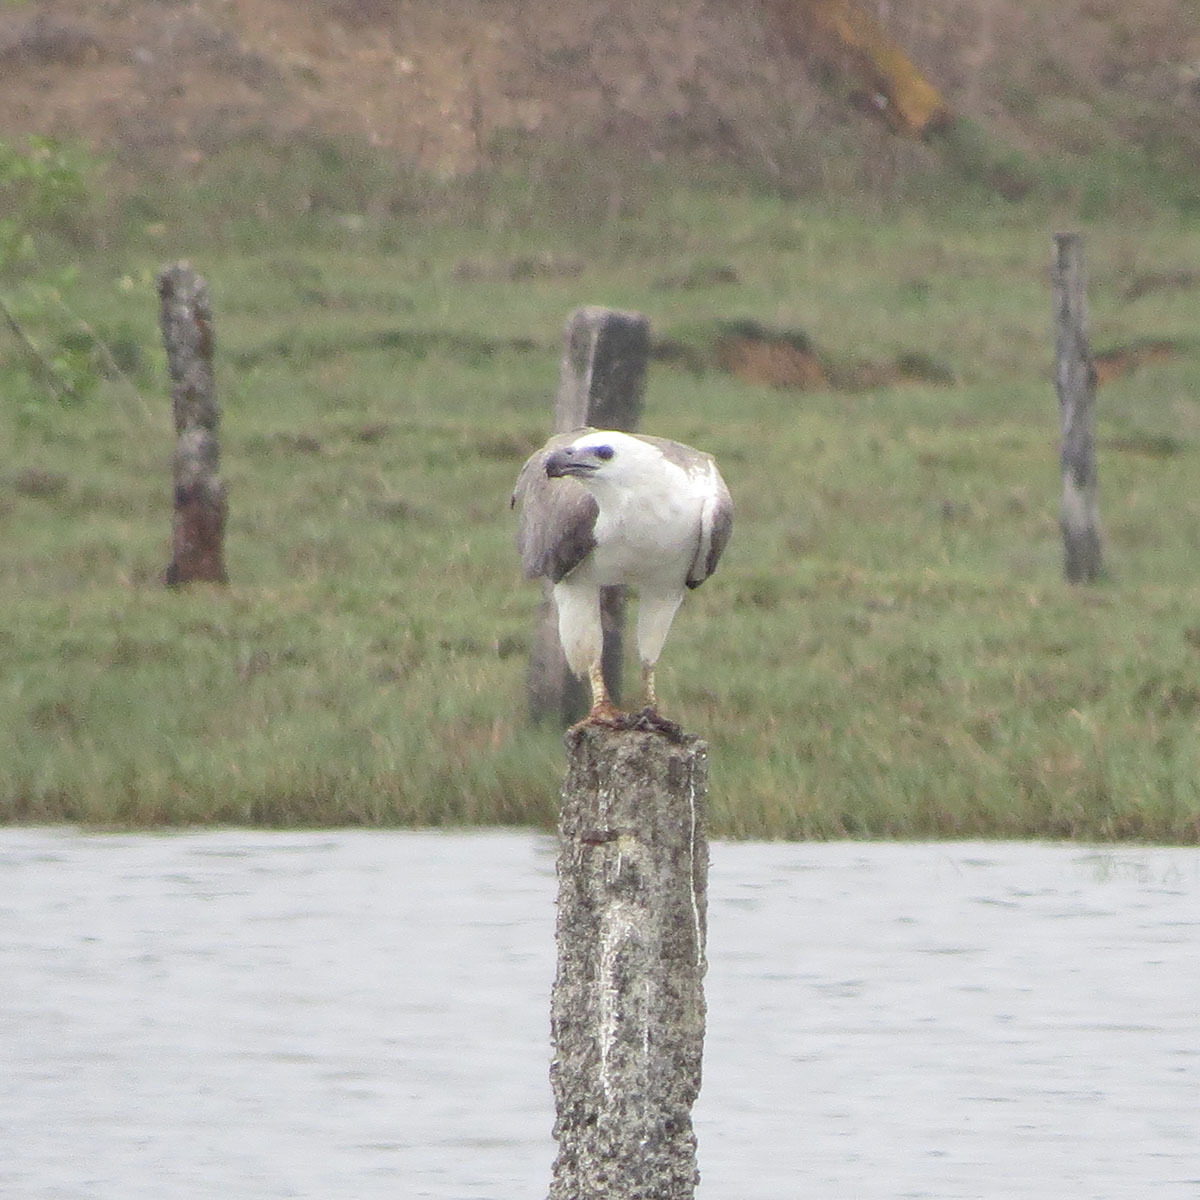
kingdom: Animalia
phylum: Chordata
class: Aves
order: Accipitriformes
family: Accipitridae
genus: Haliaeetus
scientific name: Haliaeetus leucogaster
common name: White-bellied sea eagle
